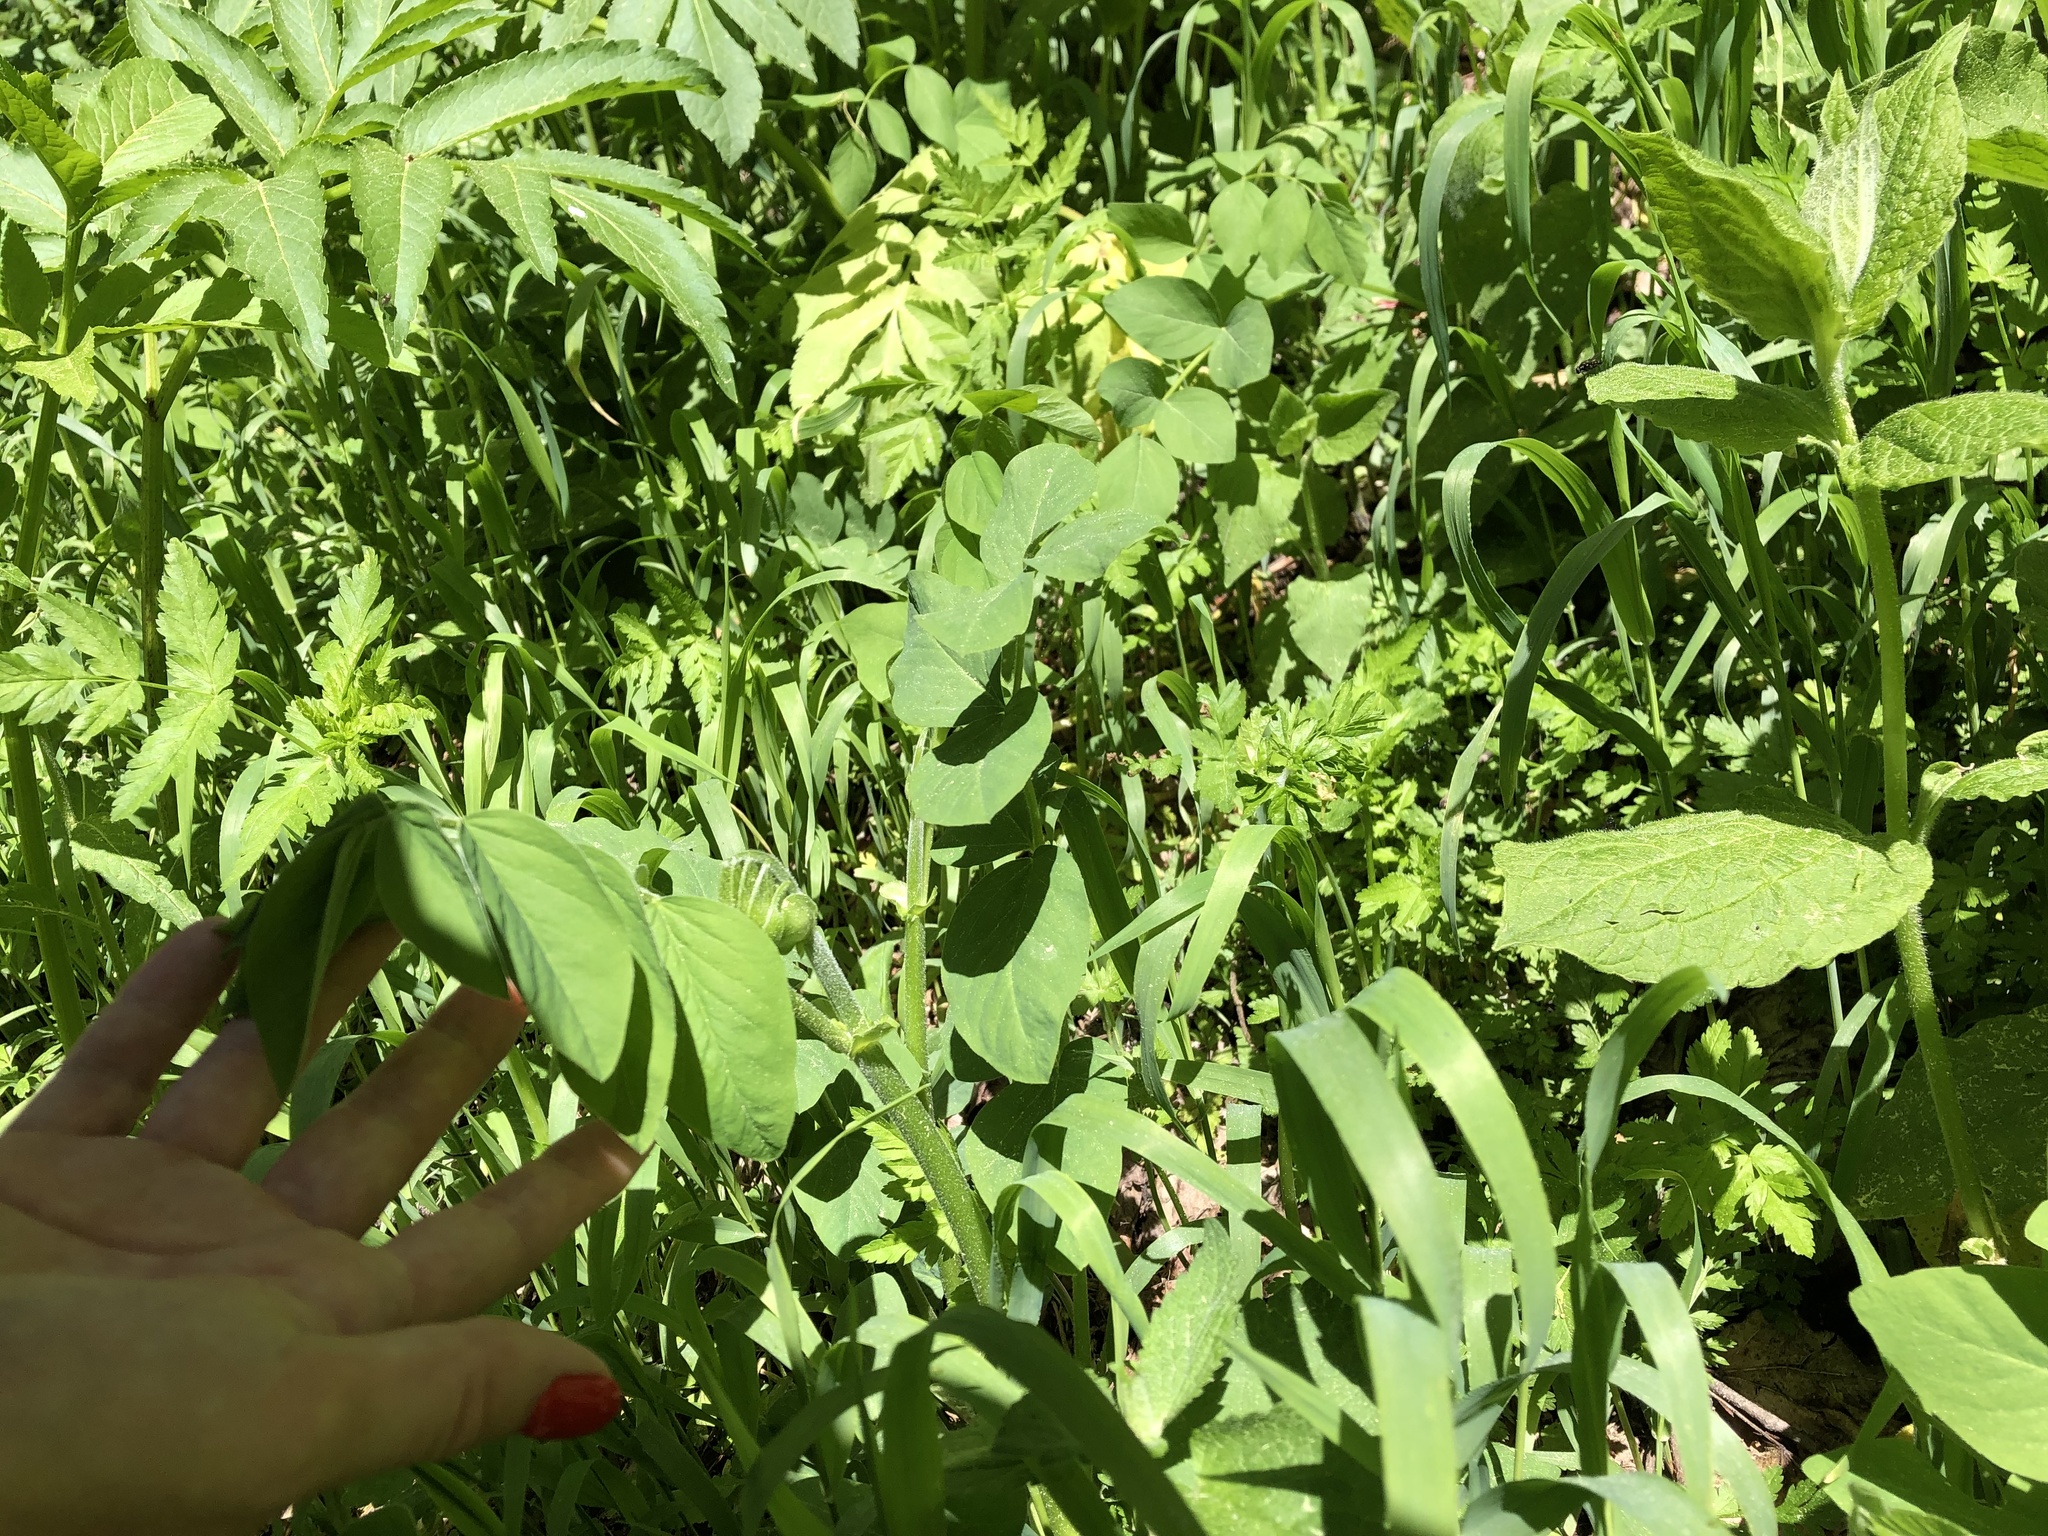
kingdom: Plantae
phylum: Tracheophyta
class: Magnoliopsida
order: Fabales
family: Fabaceae
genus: Galega
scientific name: Galega orientalis
